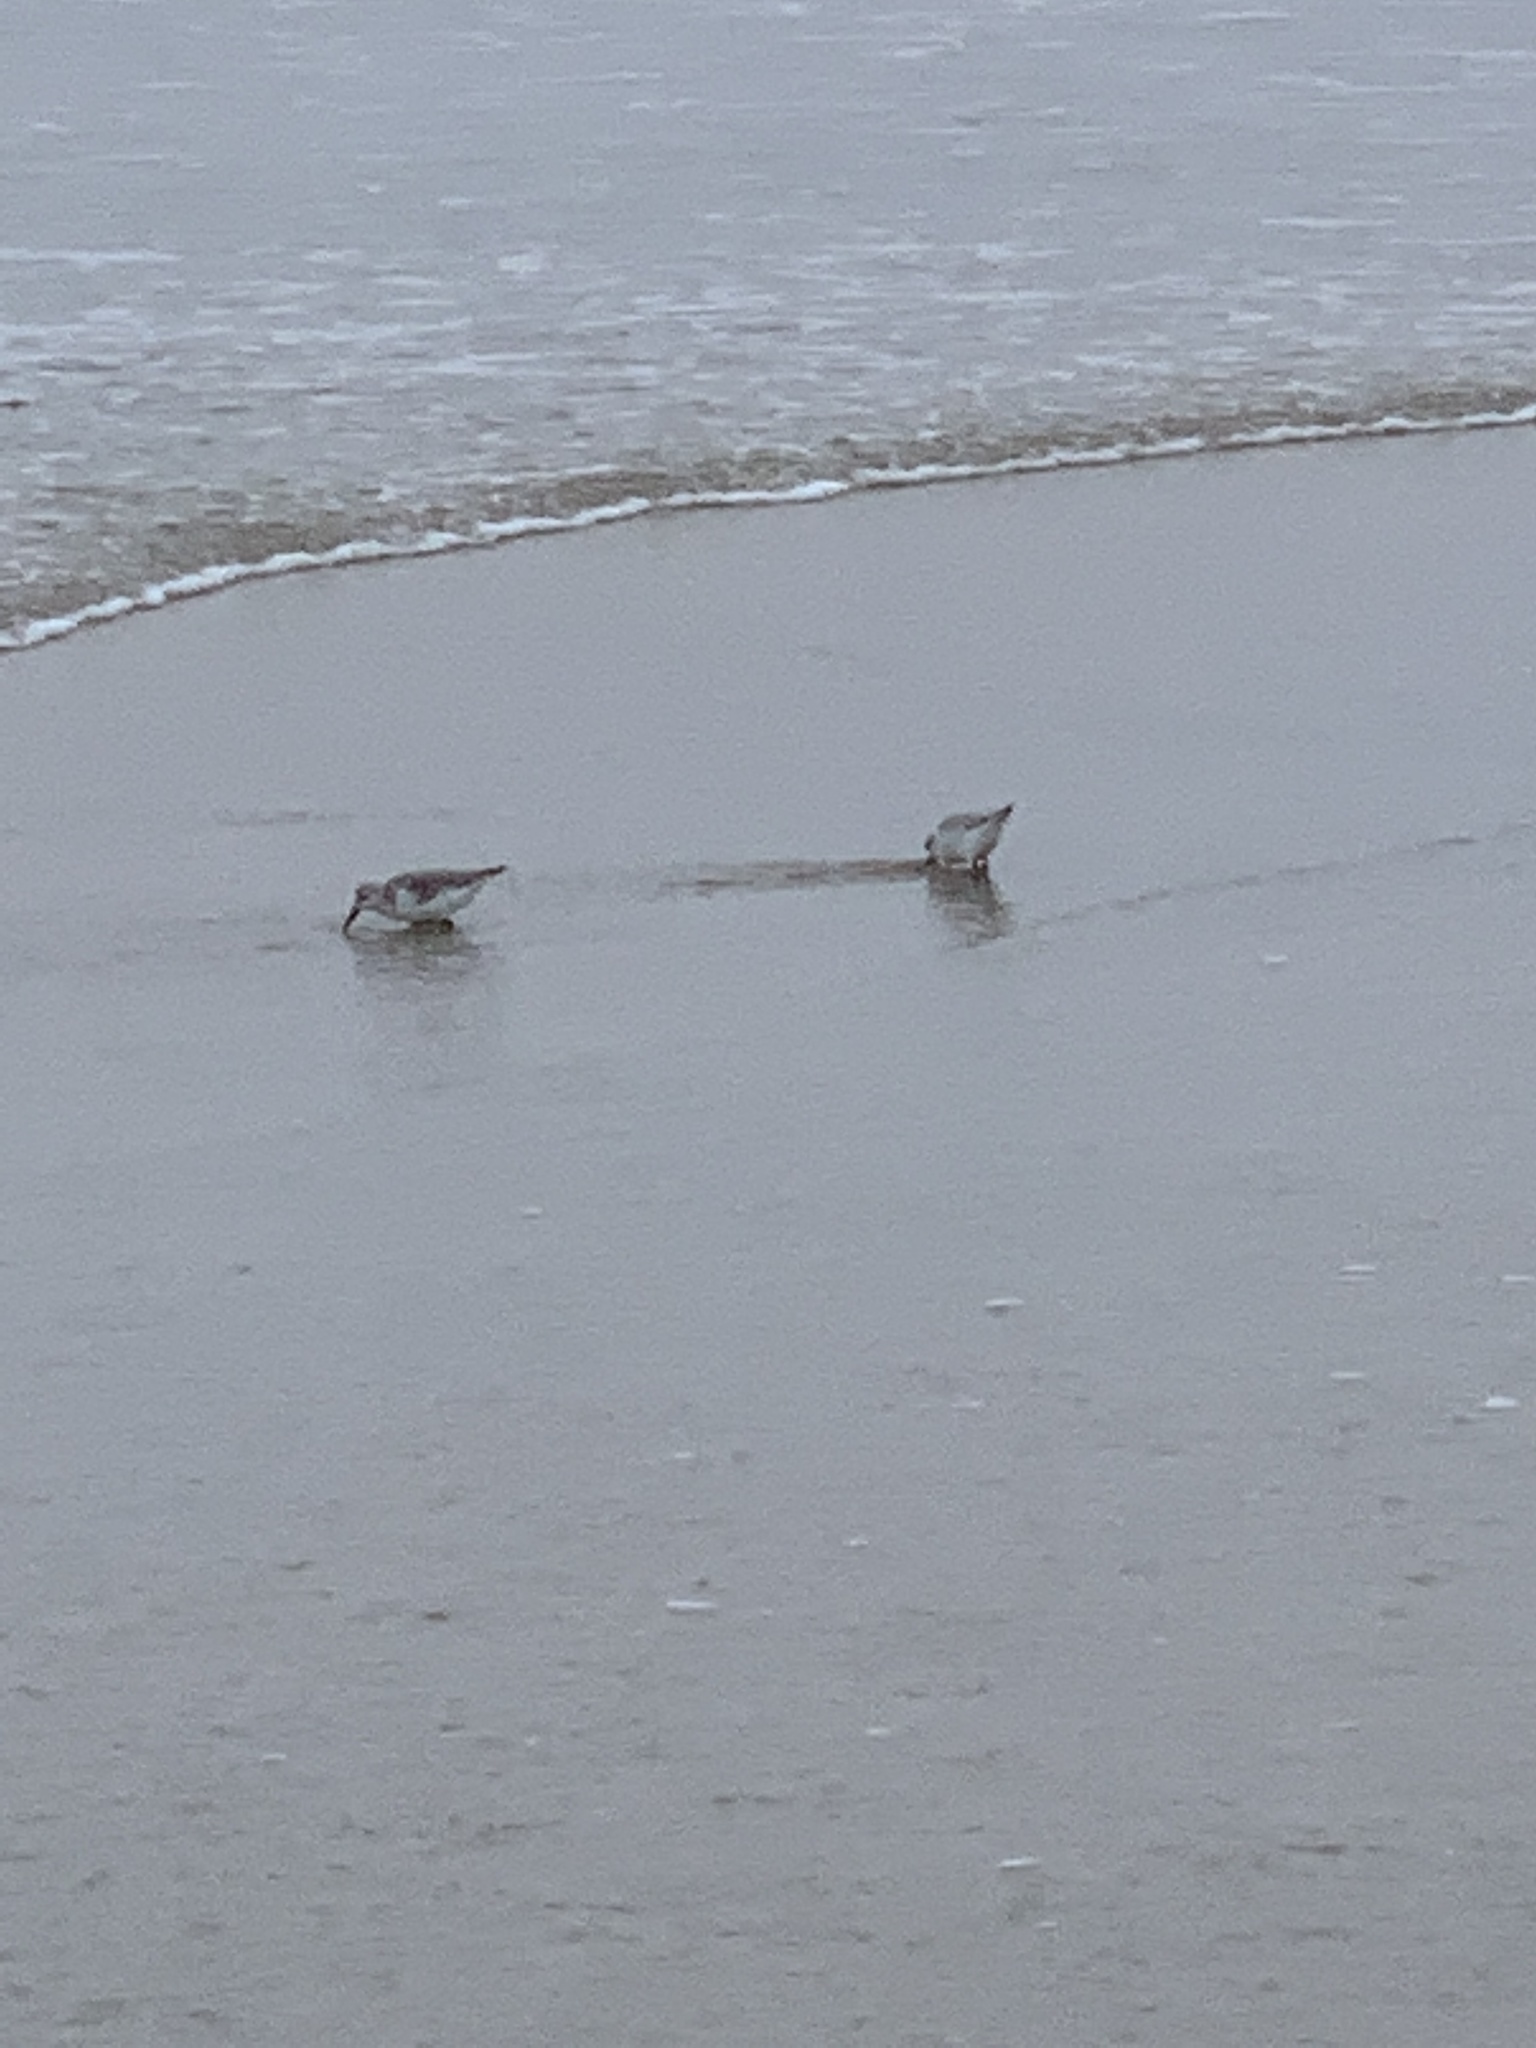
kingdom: Animalia
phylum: Chordata
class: Aves
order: Charadriiformes
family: Scolopacidae
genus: Calidris
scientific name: Calidris alba
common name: Sanderling
